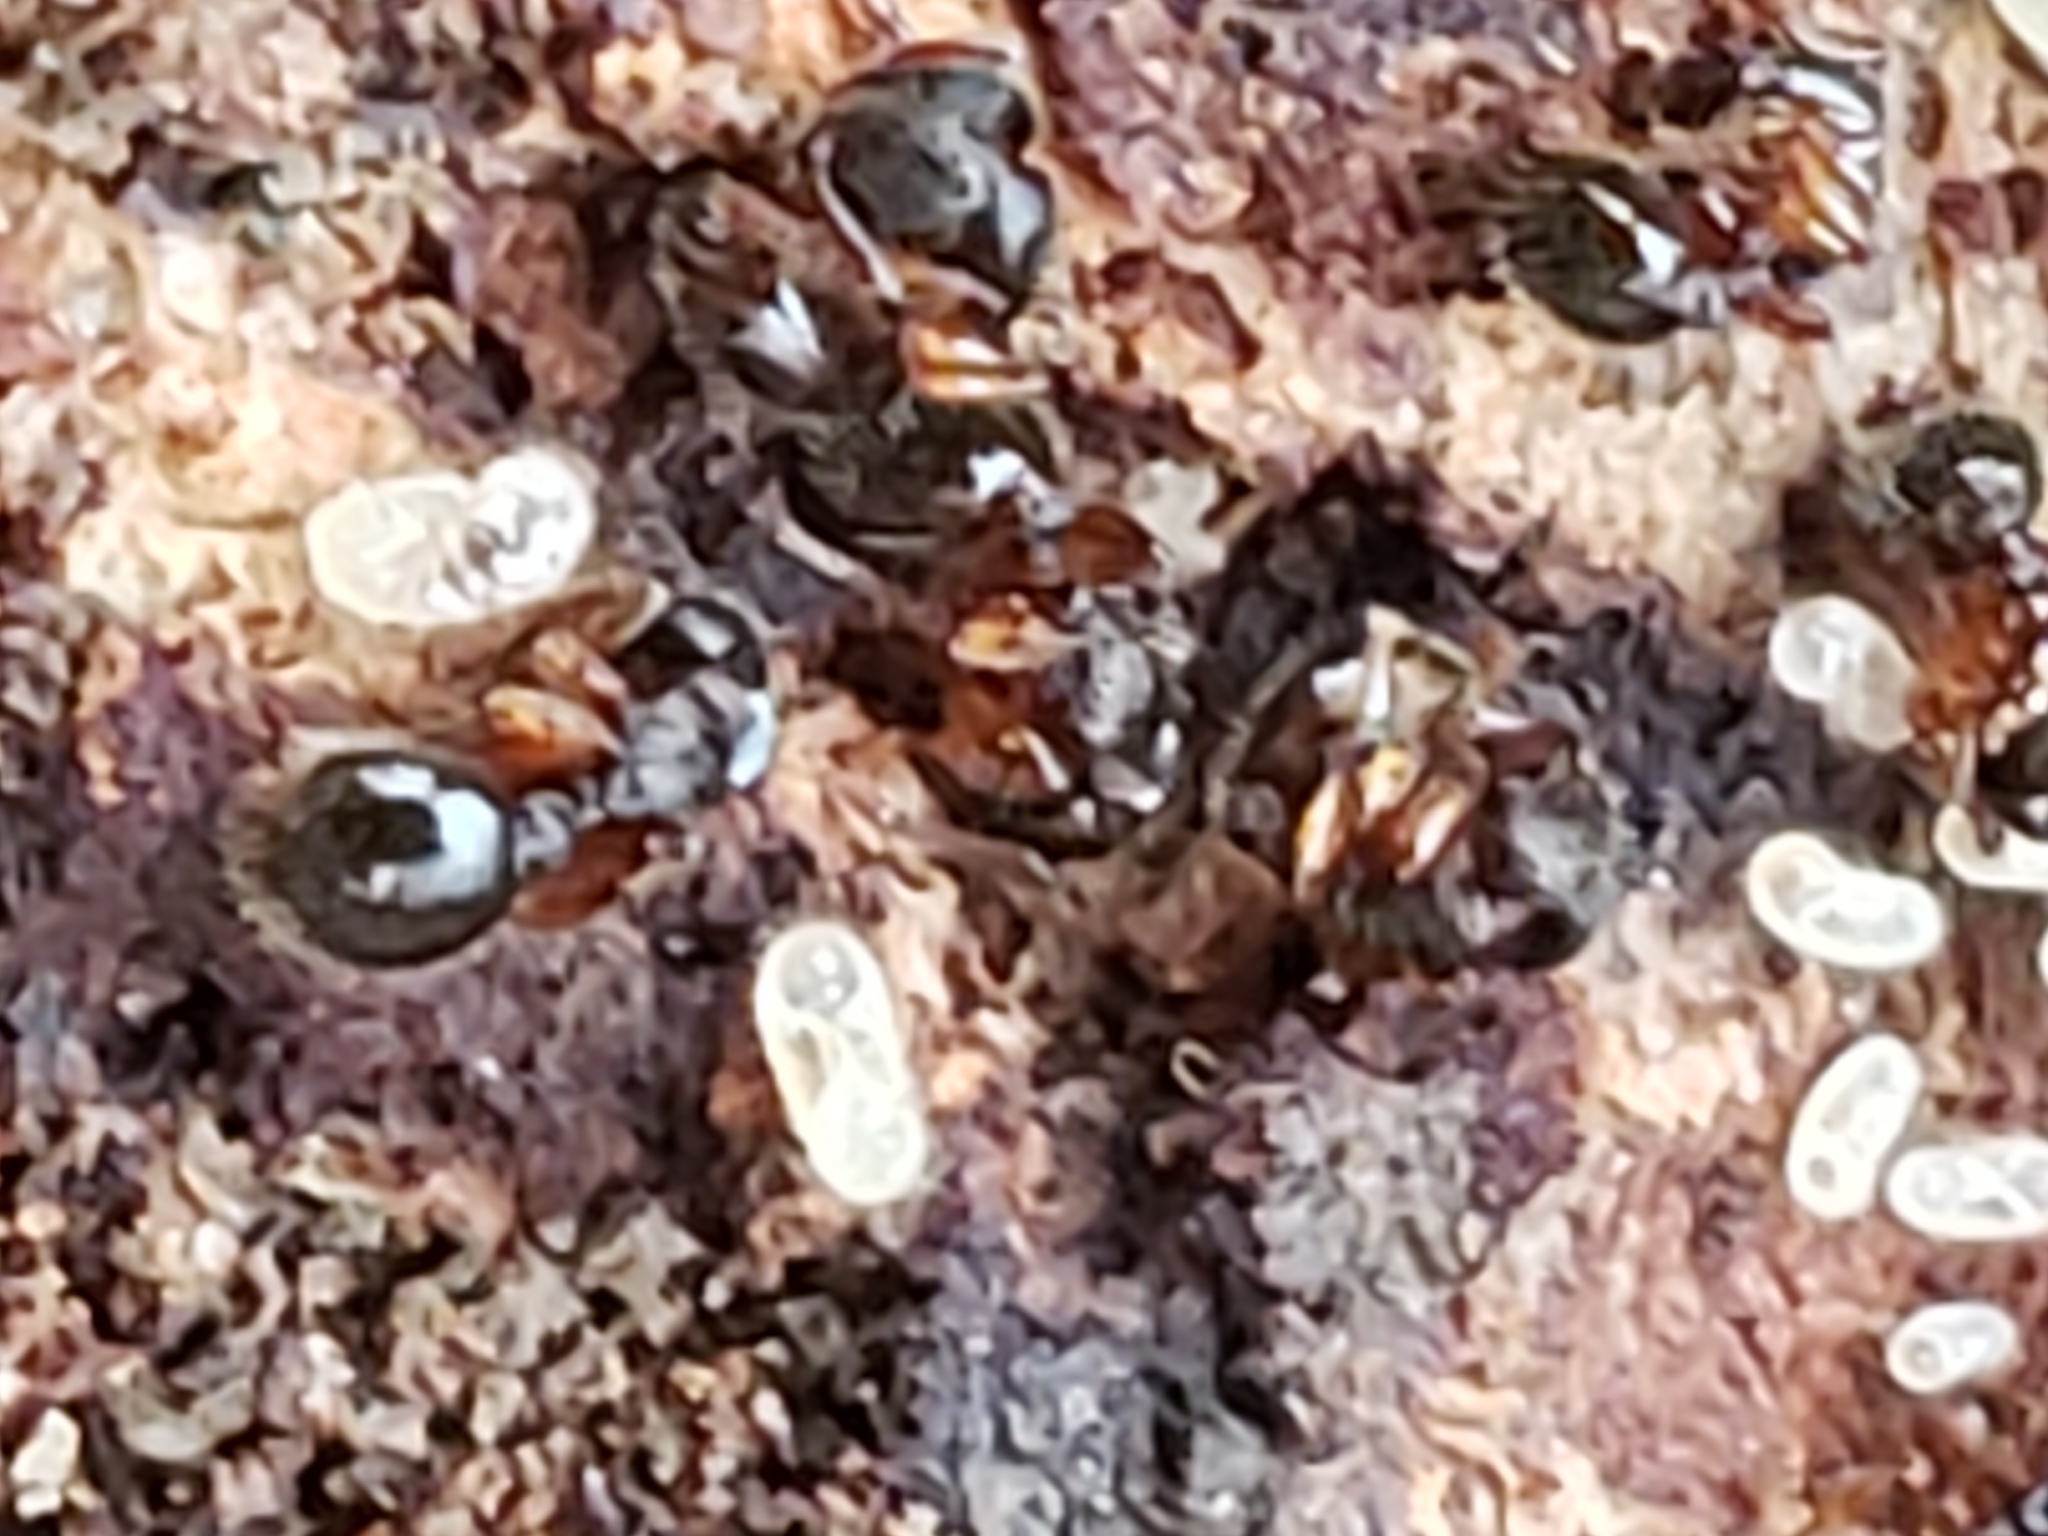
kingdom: Animalia
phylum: Arthropoda
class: Insecta
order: Hymenoptera
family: Formicidae
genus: Myrmecina
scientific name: Myrmecina americana
